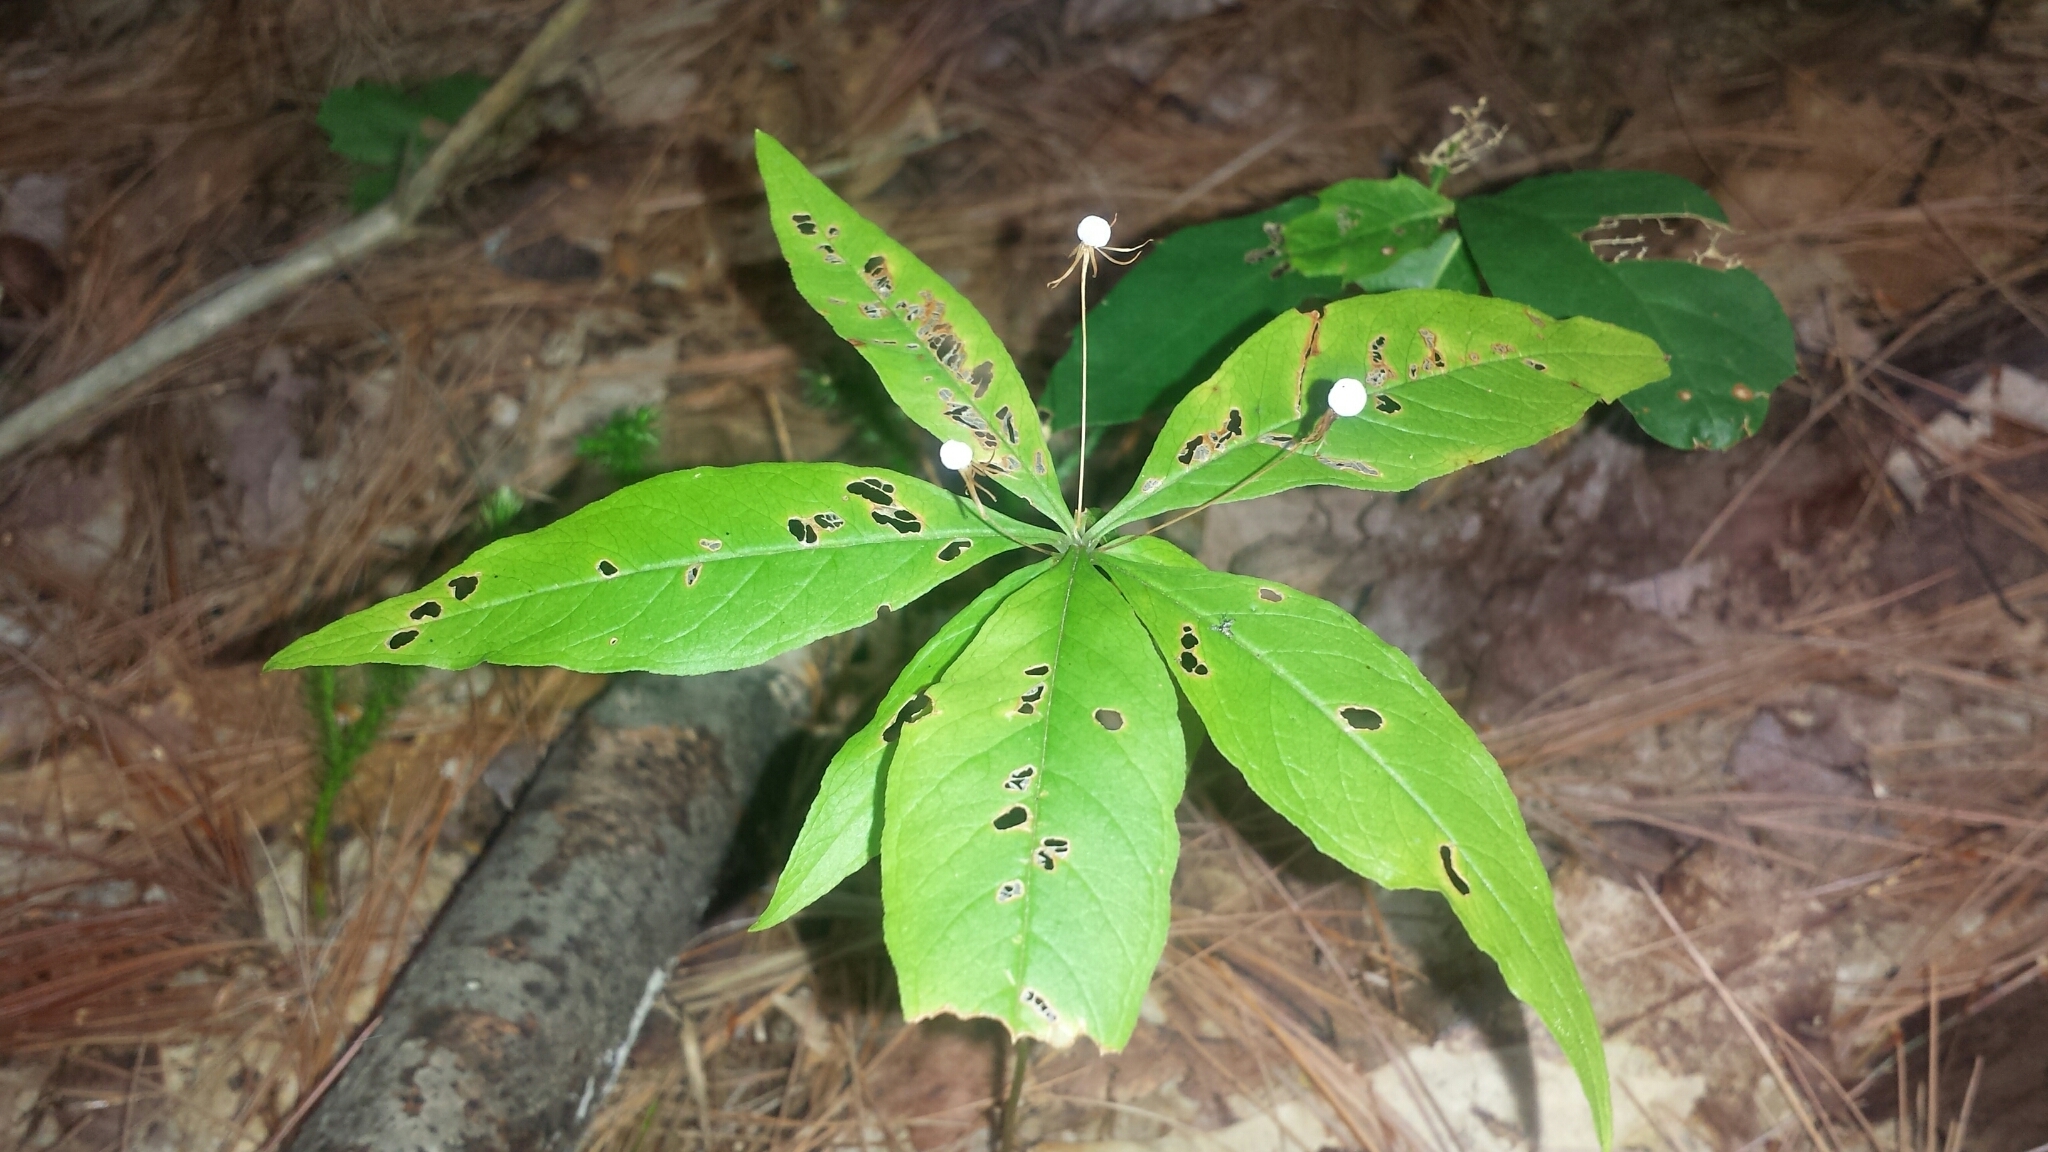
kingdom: Plantae
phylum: Tracheophyta
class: Magnoliopsida
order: Ericales
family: Primulaceae
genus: Lysimachia
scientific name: Lysimachia borealis
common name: American starflower
